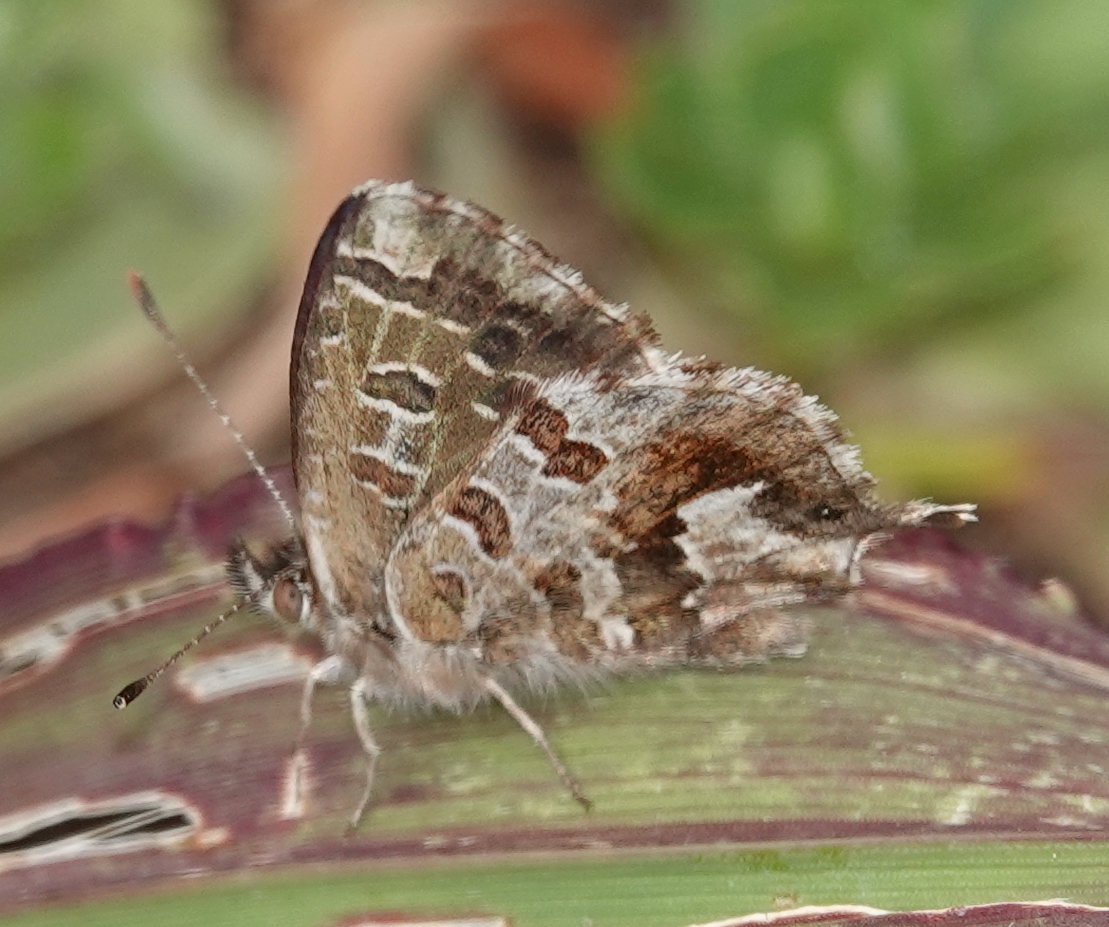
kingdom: Animalia
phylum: Arthropoda
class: Insecta
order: Lepidoptera
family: Lycaenidae
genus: Cacyreus
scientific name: Cacyreus fracta
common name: Water bronze
